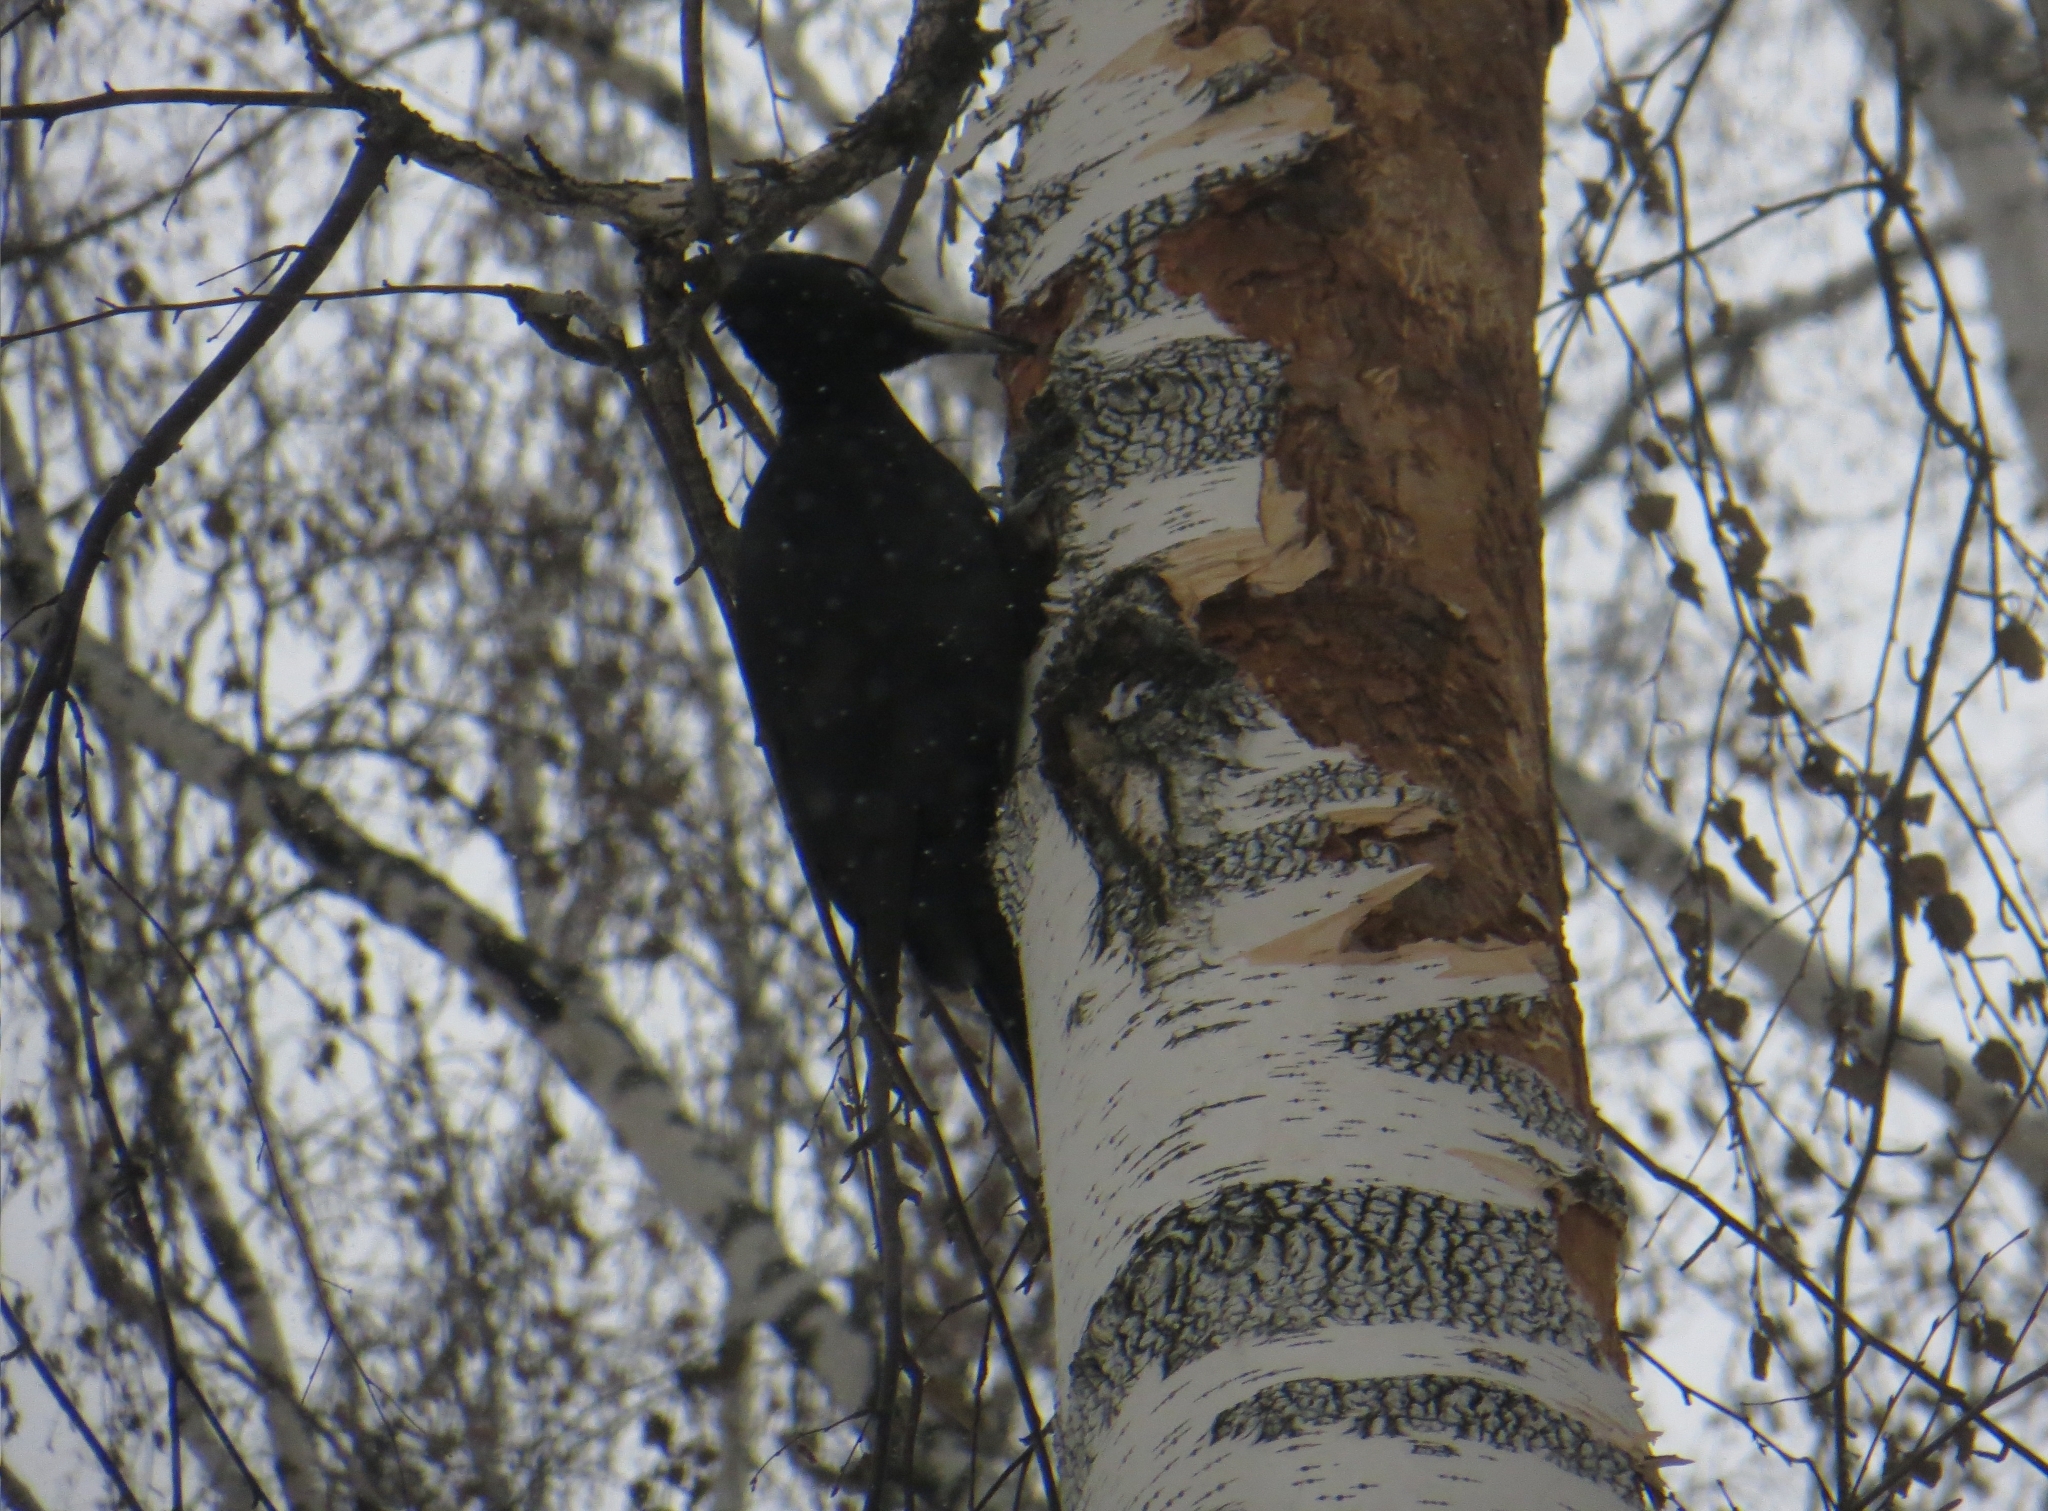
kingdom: Animalia
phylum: Chordata
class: Aves
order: Piciformes
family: Picidae
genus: Dryocopus
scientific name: Dryocopus martius
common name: Black woodpecker
